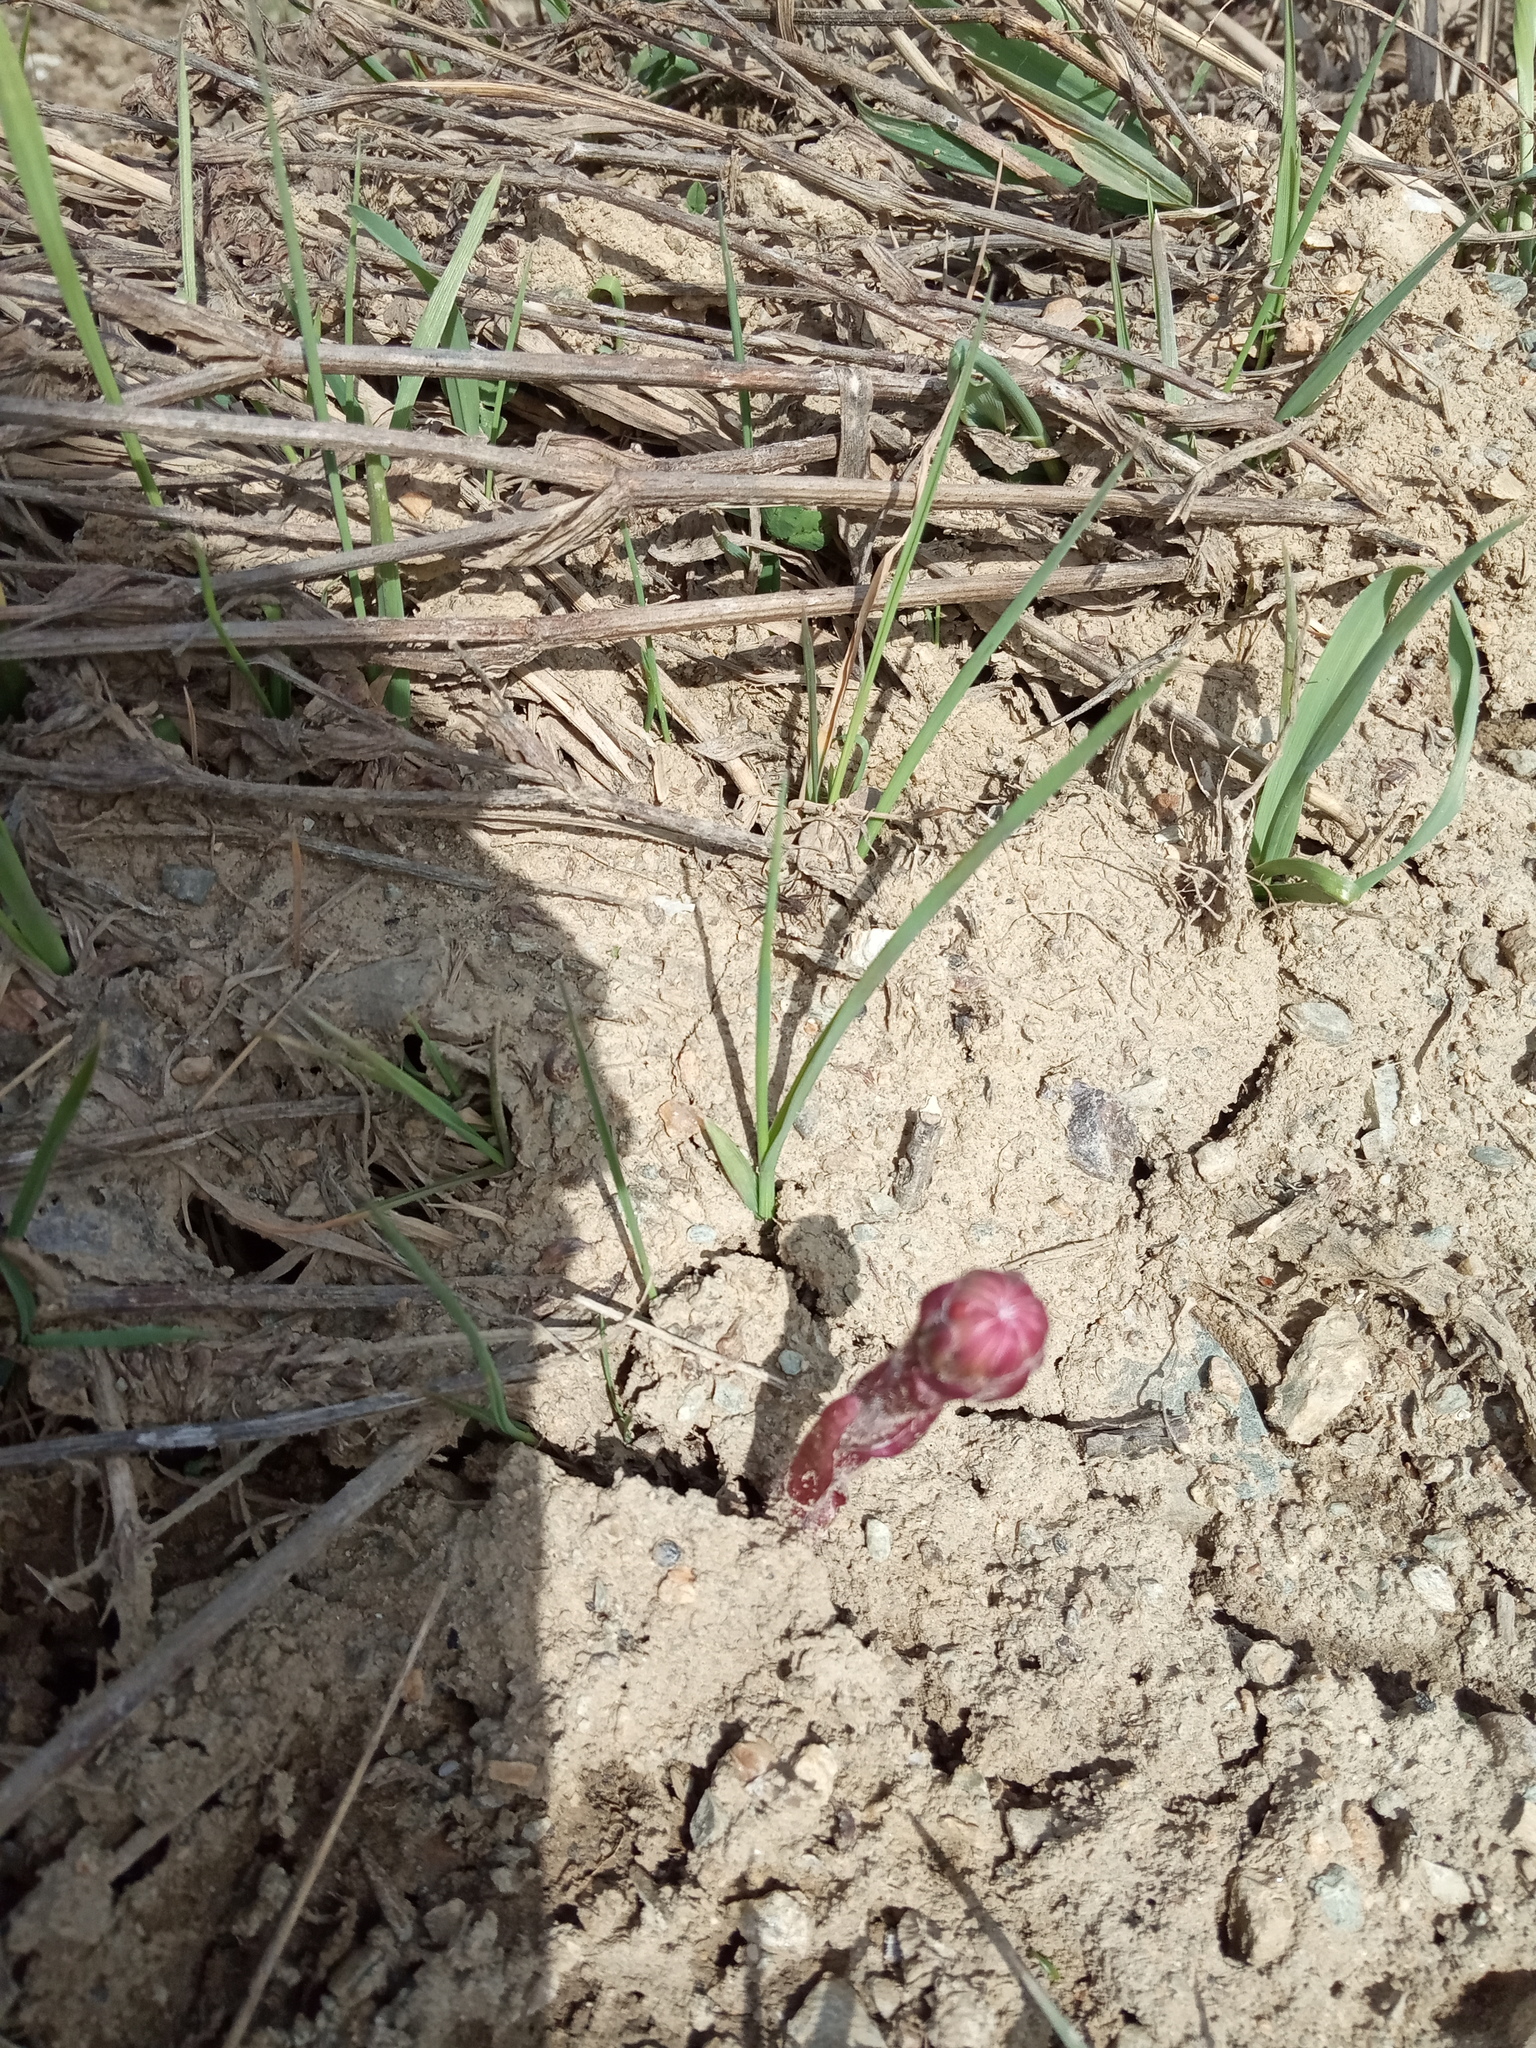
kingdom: Plantae
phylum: Tracheophyta
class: Magnoliopsida
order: Asterales
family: Asteraceae
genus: Tussilago
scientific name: Tussilago farfara
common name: Coltsfoot
